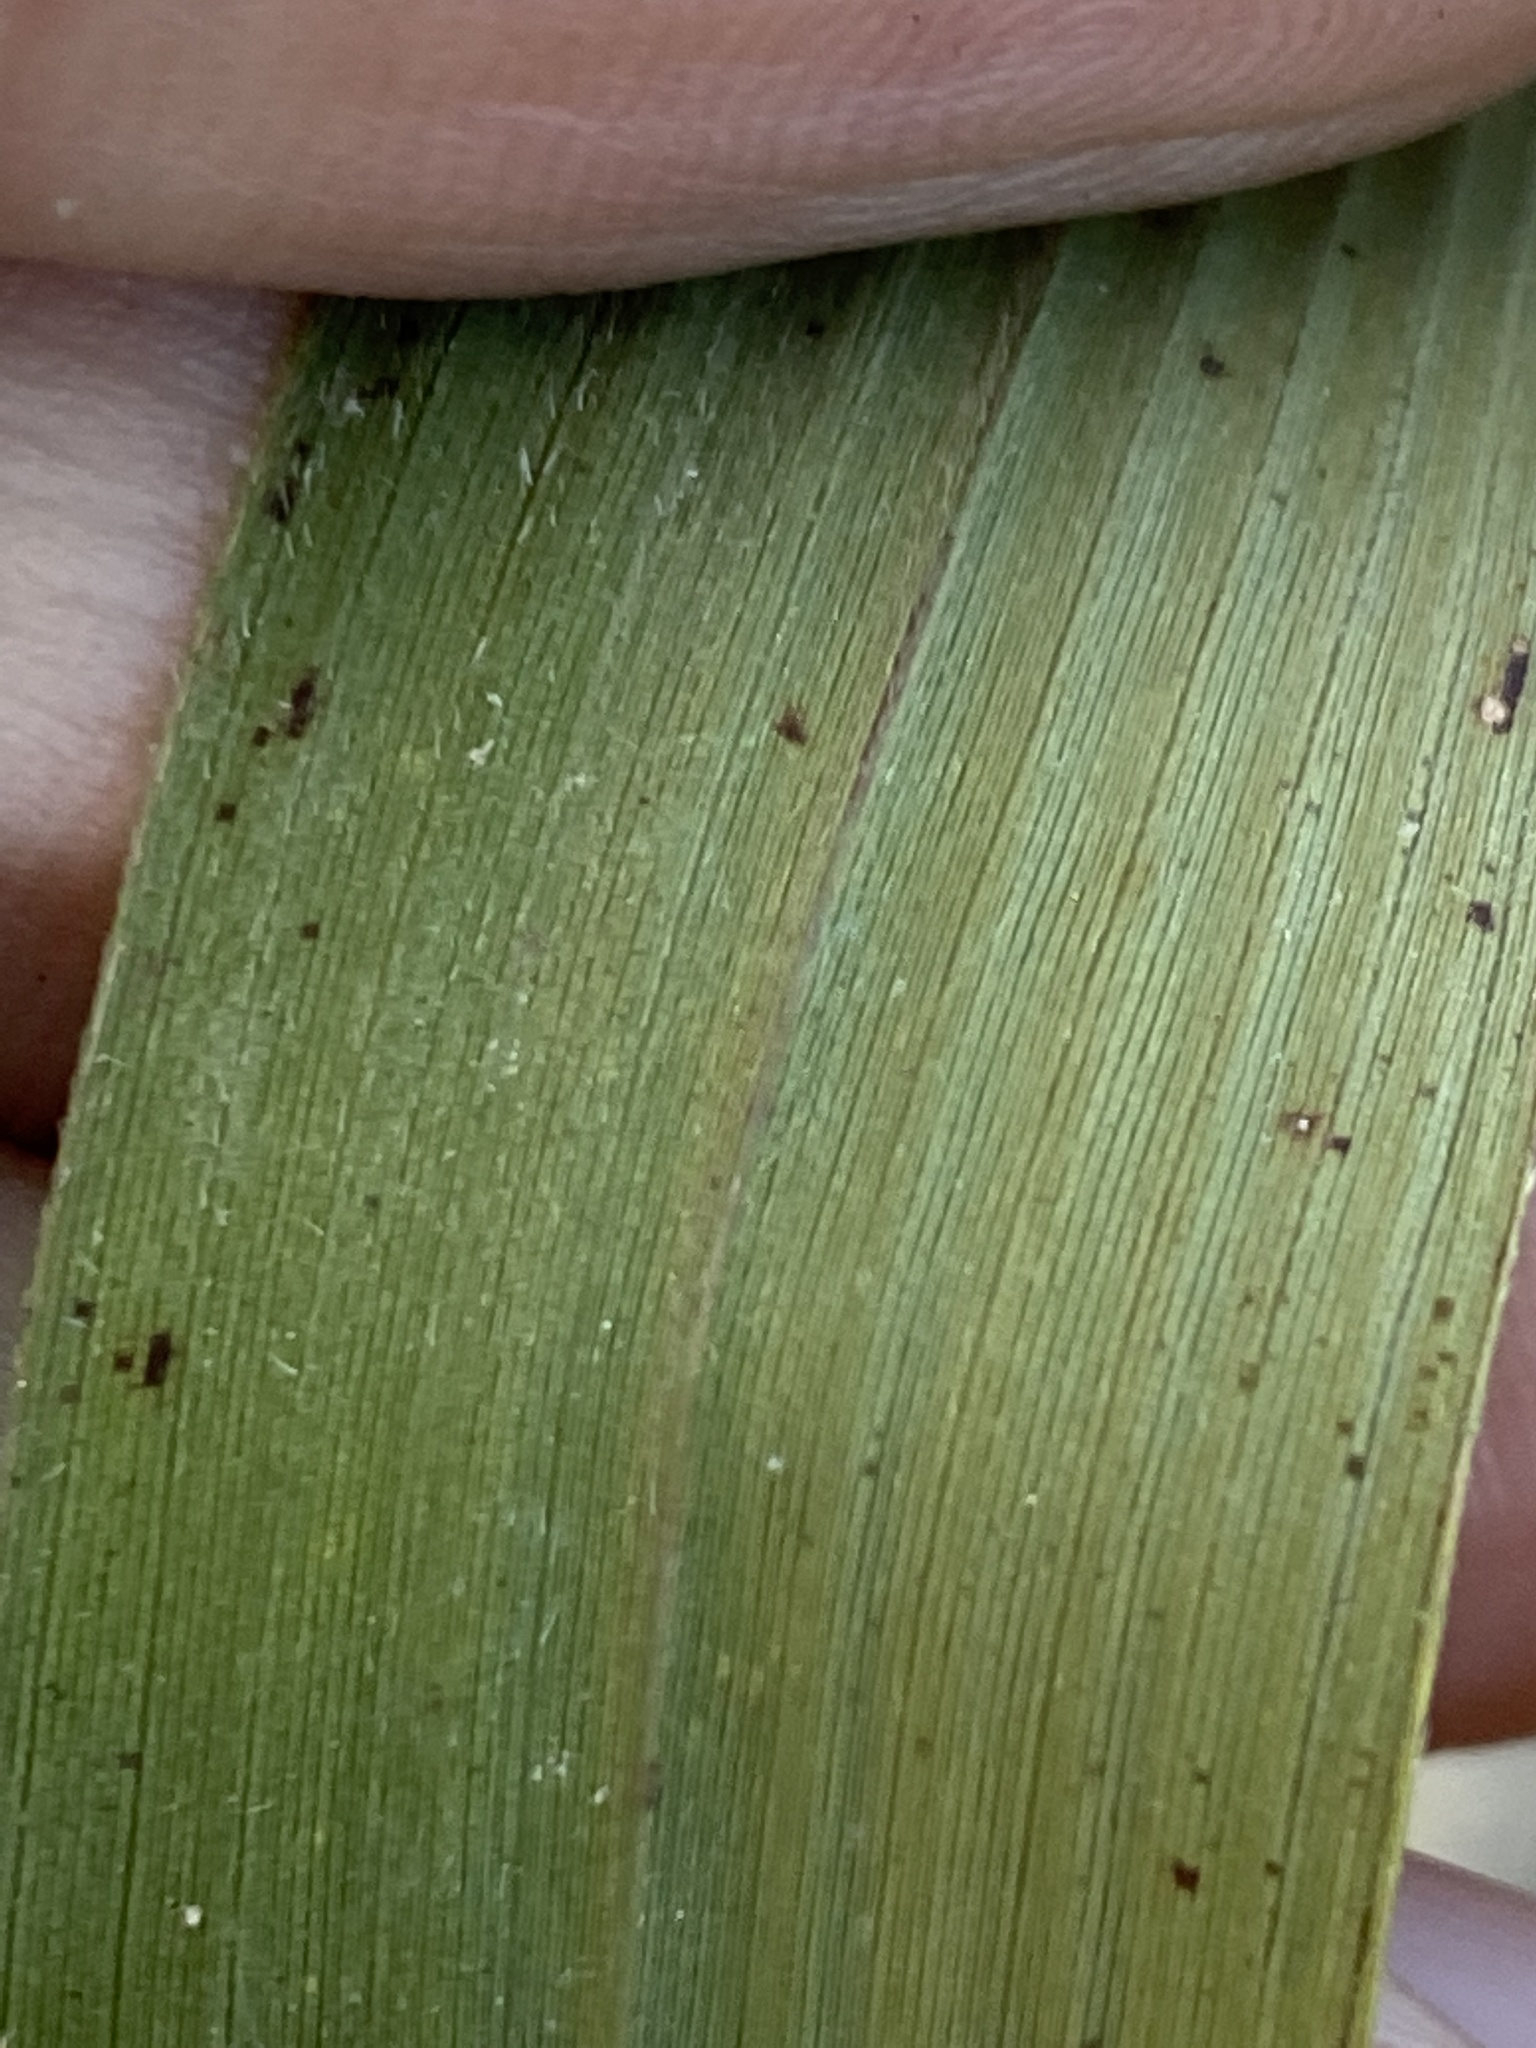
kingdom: Plantae
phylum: Tracheophyta
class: Liliopsida
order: Poales
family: Poaceae
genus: Arundinaria
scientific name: Arundinaria gigantea
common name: Giant cane
